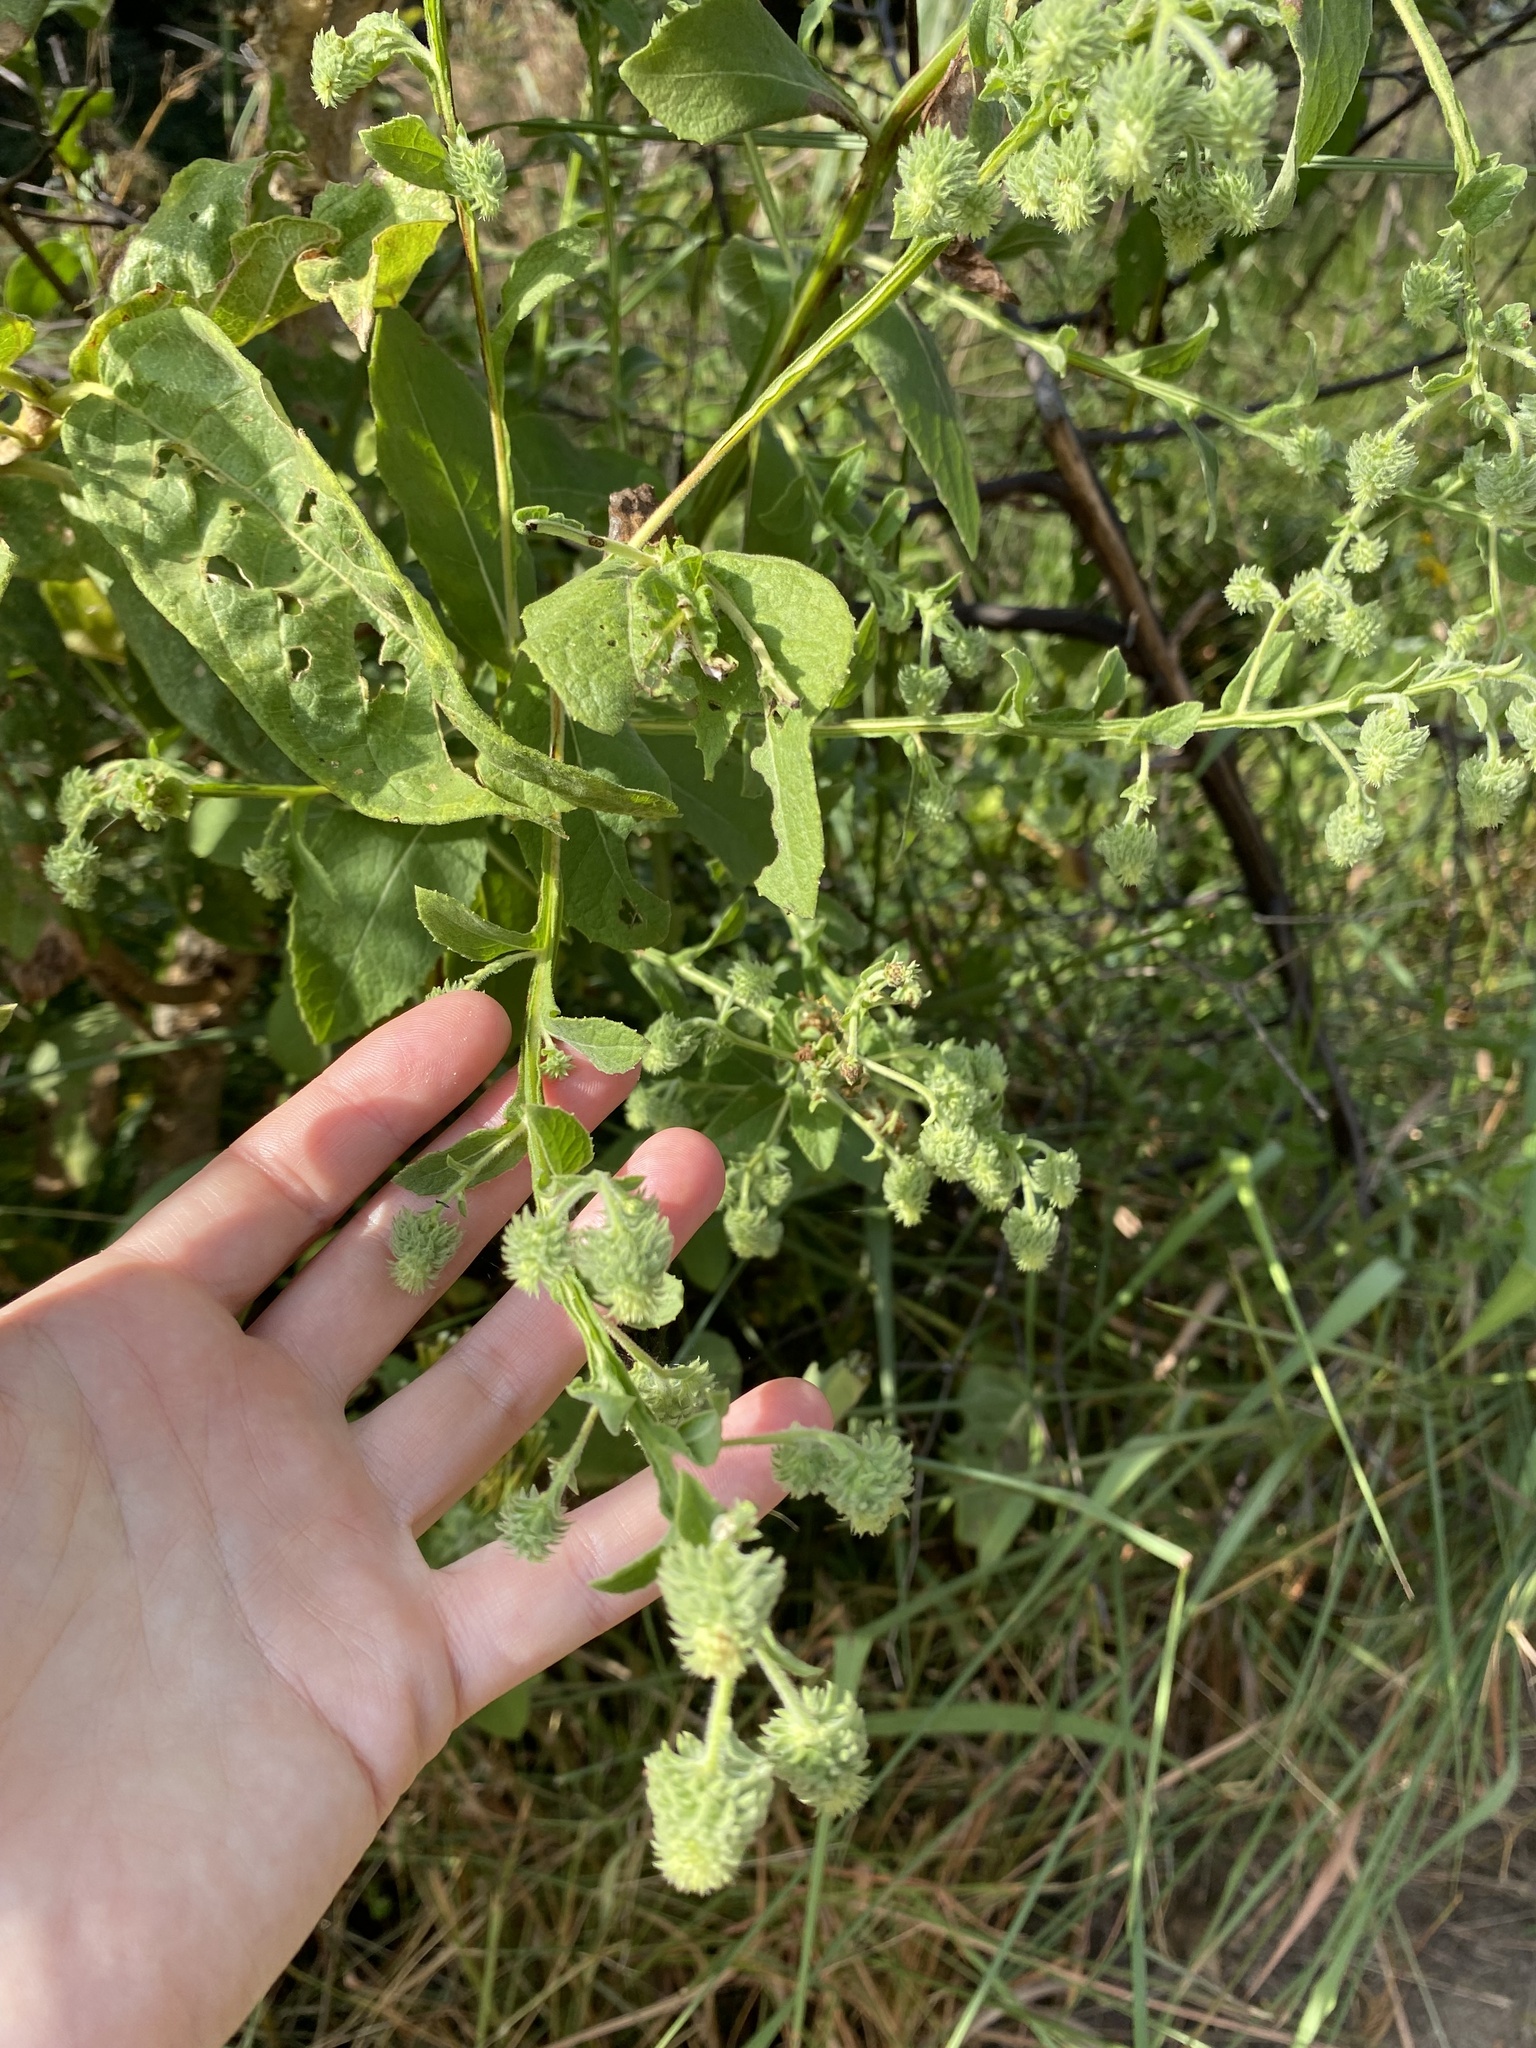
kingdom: Plantae
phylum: Tracheophyta
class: Magnoliopsida
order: Asterales
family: Asteraceae
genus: Laggera
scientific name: Laggera crispata
